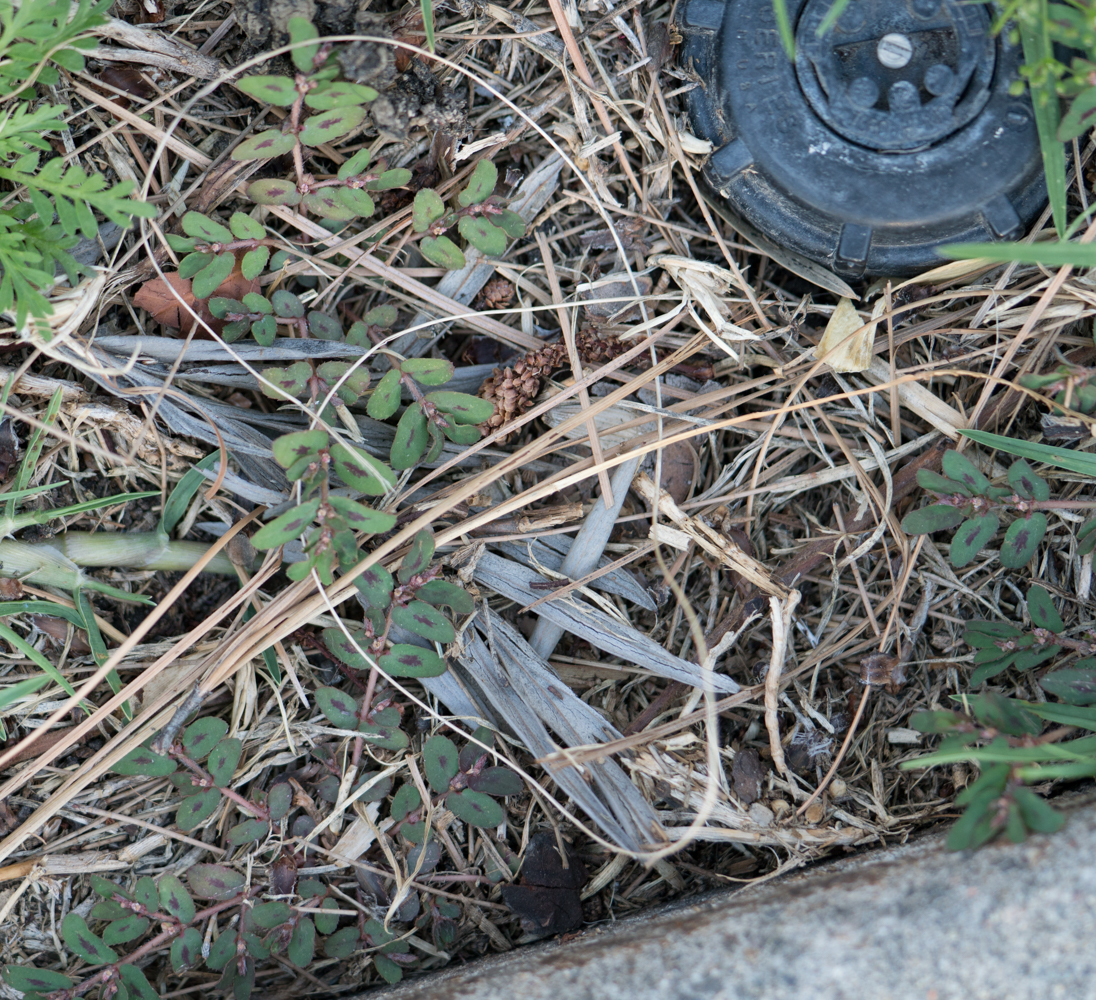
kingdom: Plantae
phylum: Tracheophyta
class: Magnoliopsida
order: Malpighiales
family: Euphorbiaceae
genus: Euphorbia
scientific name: Euphorbia maculata
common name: Spotted spurge
